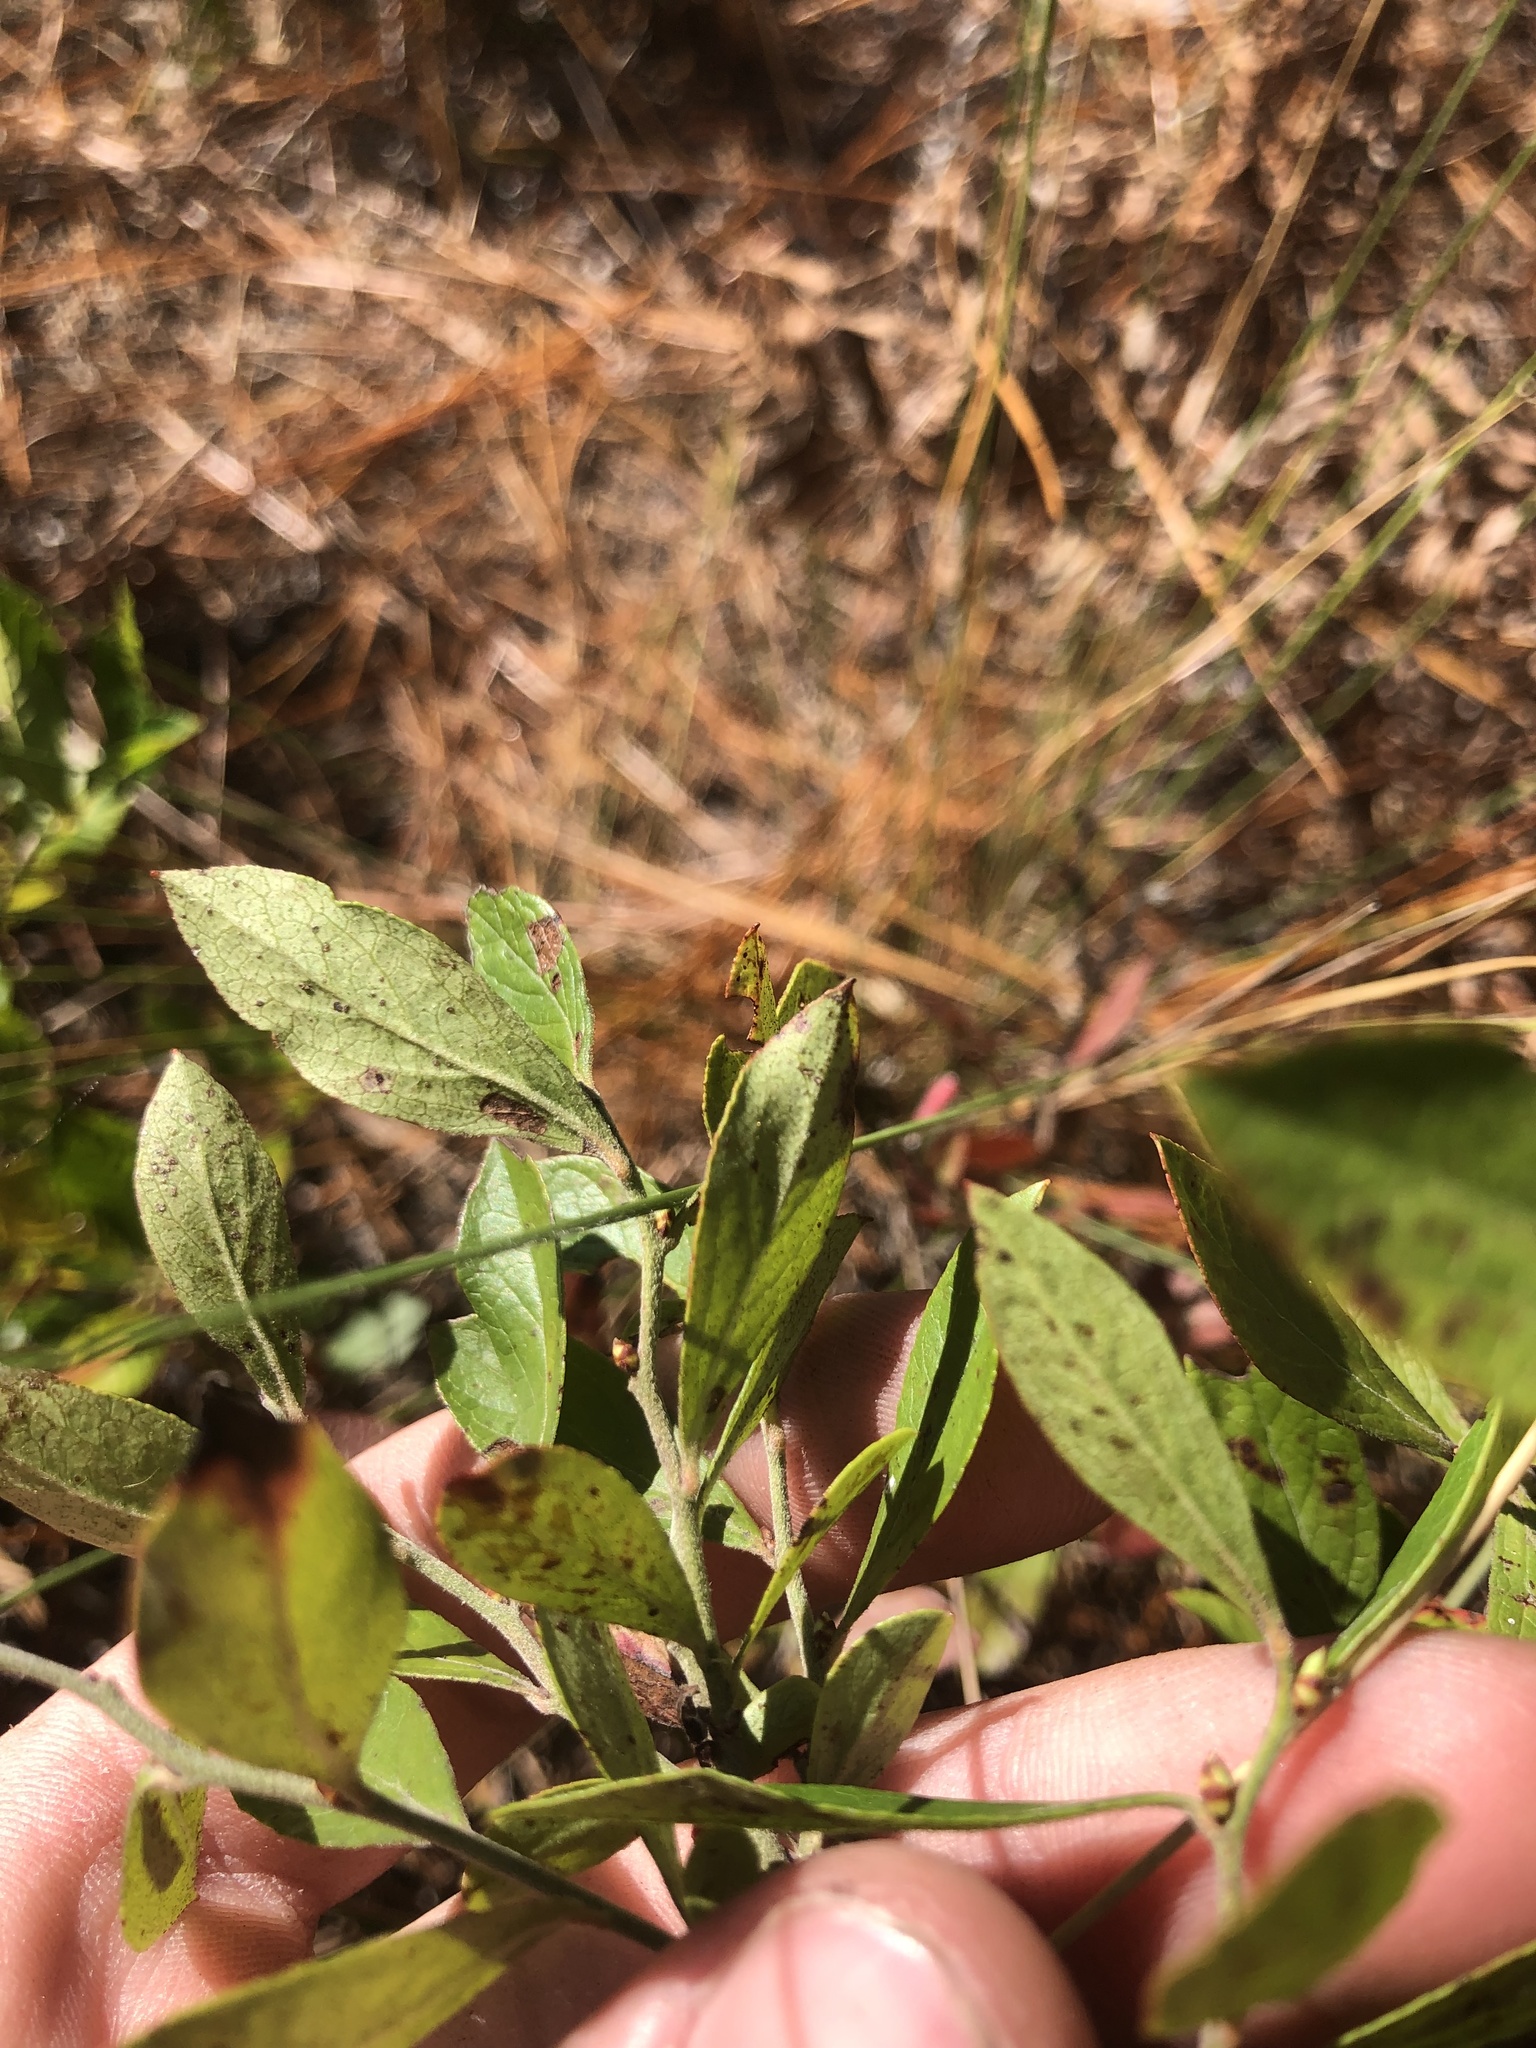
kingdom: Plantae
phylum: Tracheophyta
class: Magnoliopsida
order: Ericales
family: Ericaceae
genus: Vaccinium
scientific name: Vaccinium tenellum
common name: Southern blueberry
